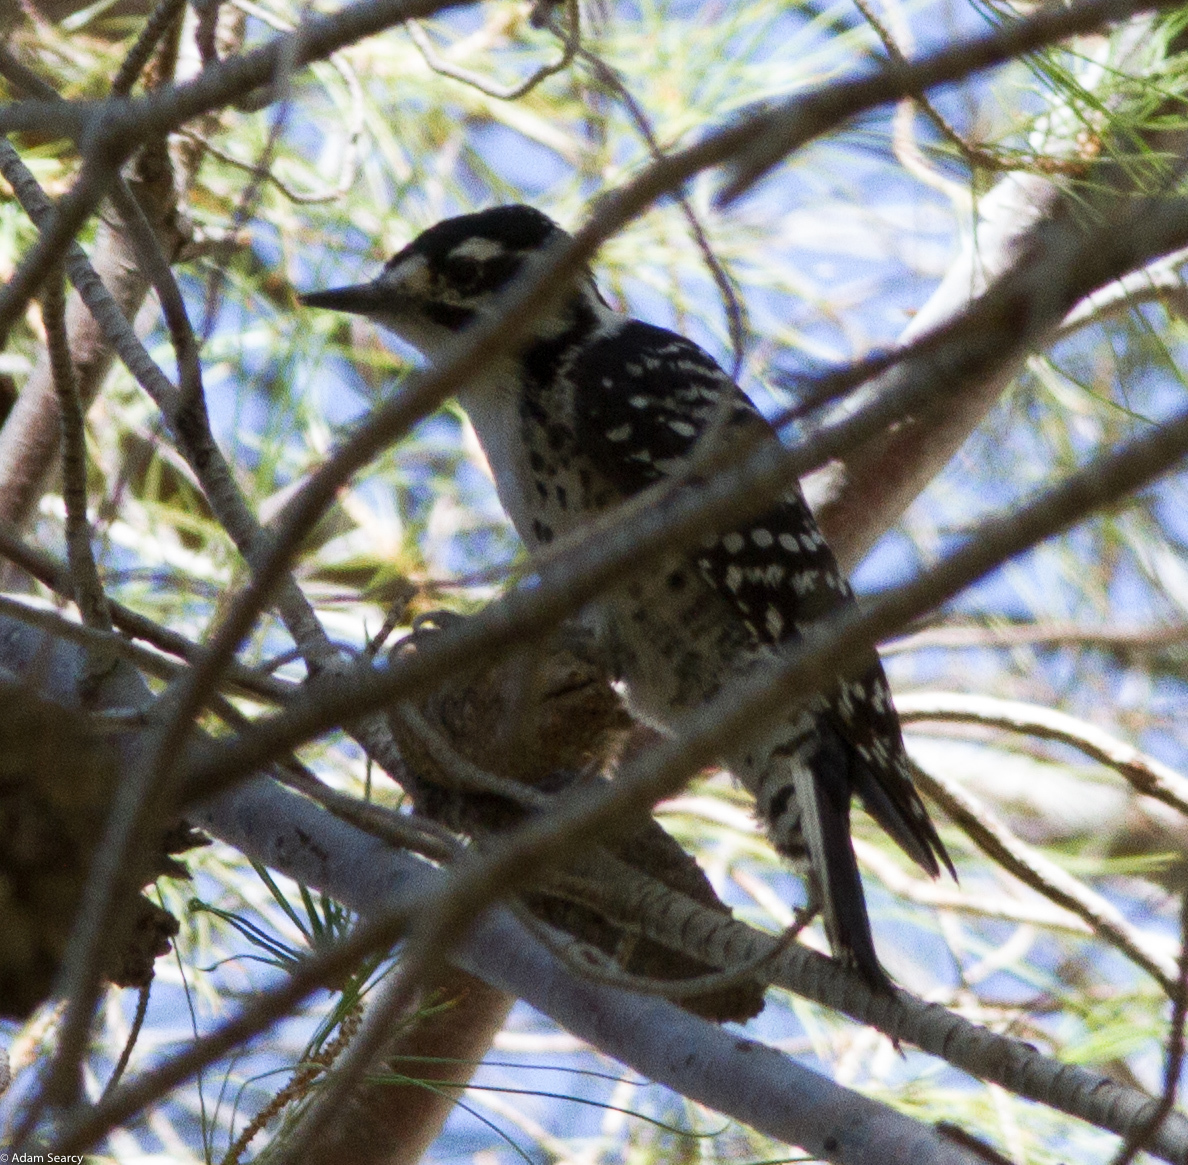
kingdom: Animalia
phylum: Chordata
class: Aves
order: Piciformes
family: Picidae
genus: Dryobates
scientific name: Dryobates nuttallii
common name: Nuttall's woodpecker
